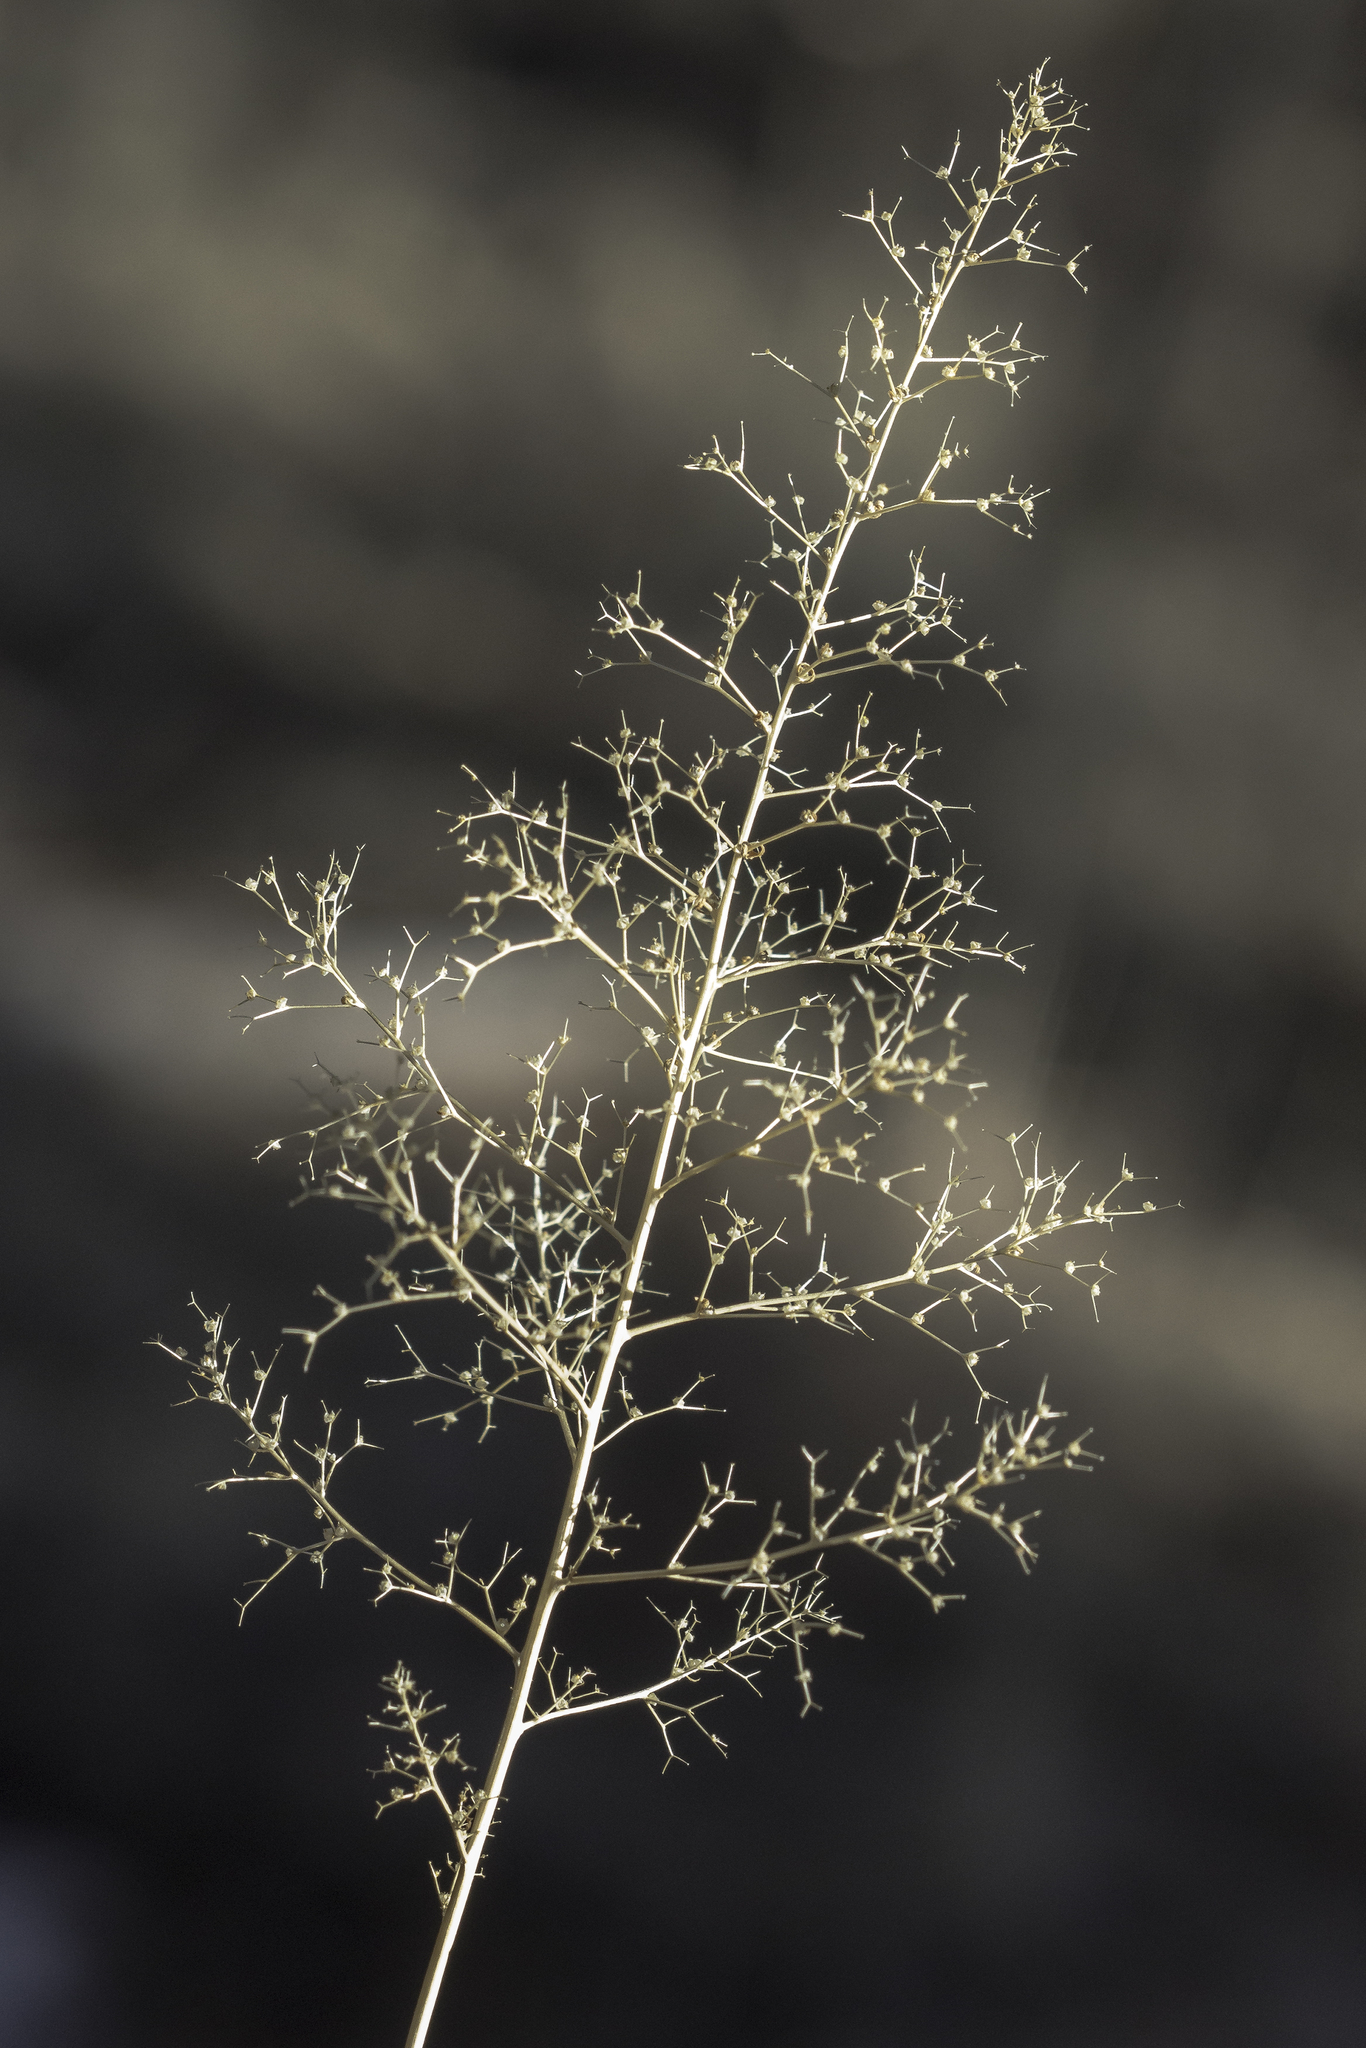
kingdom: Plantae
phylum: Tracheophyta
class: Magnoliopsida
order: Caryophyllales
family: Amaranthaceae
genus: Dysphania
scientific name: Dysphania incisa
